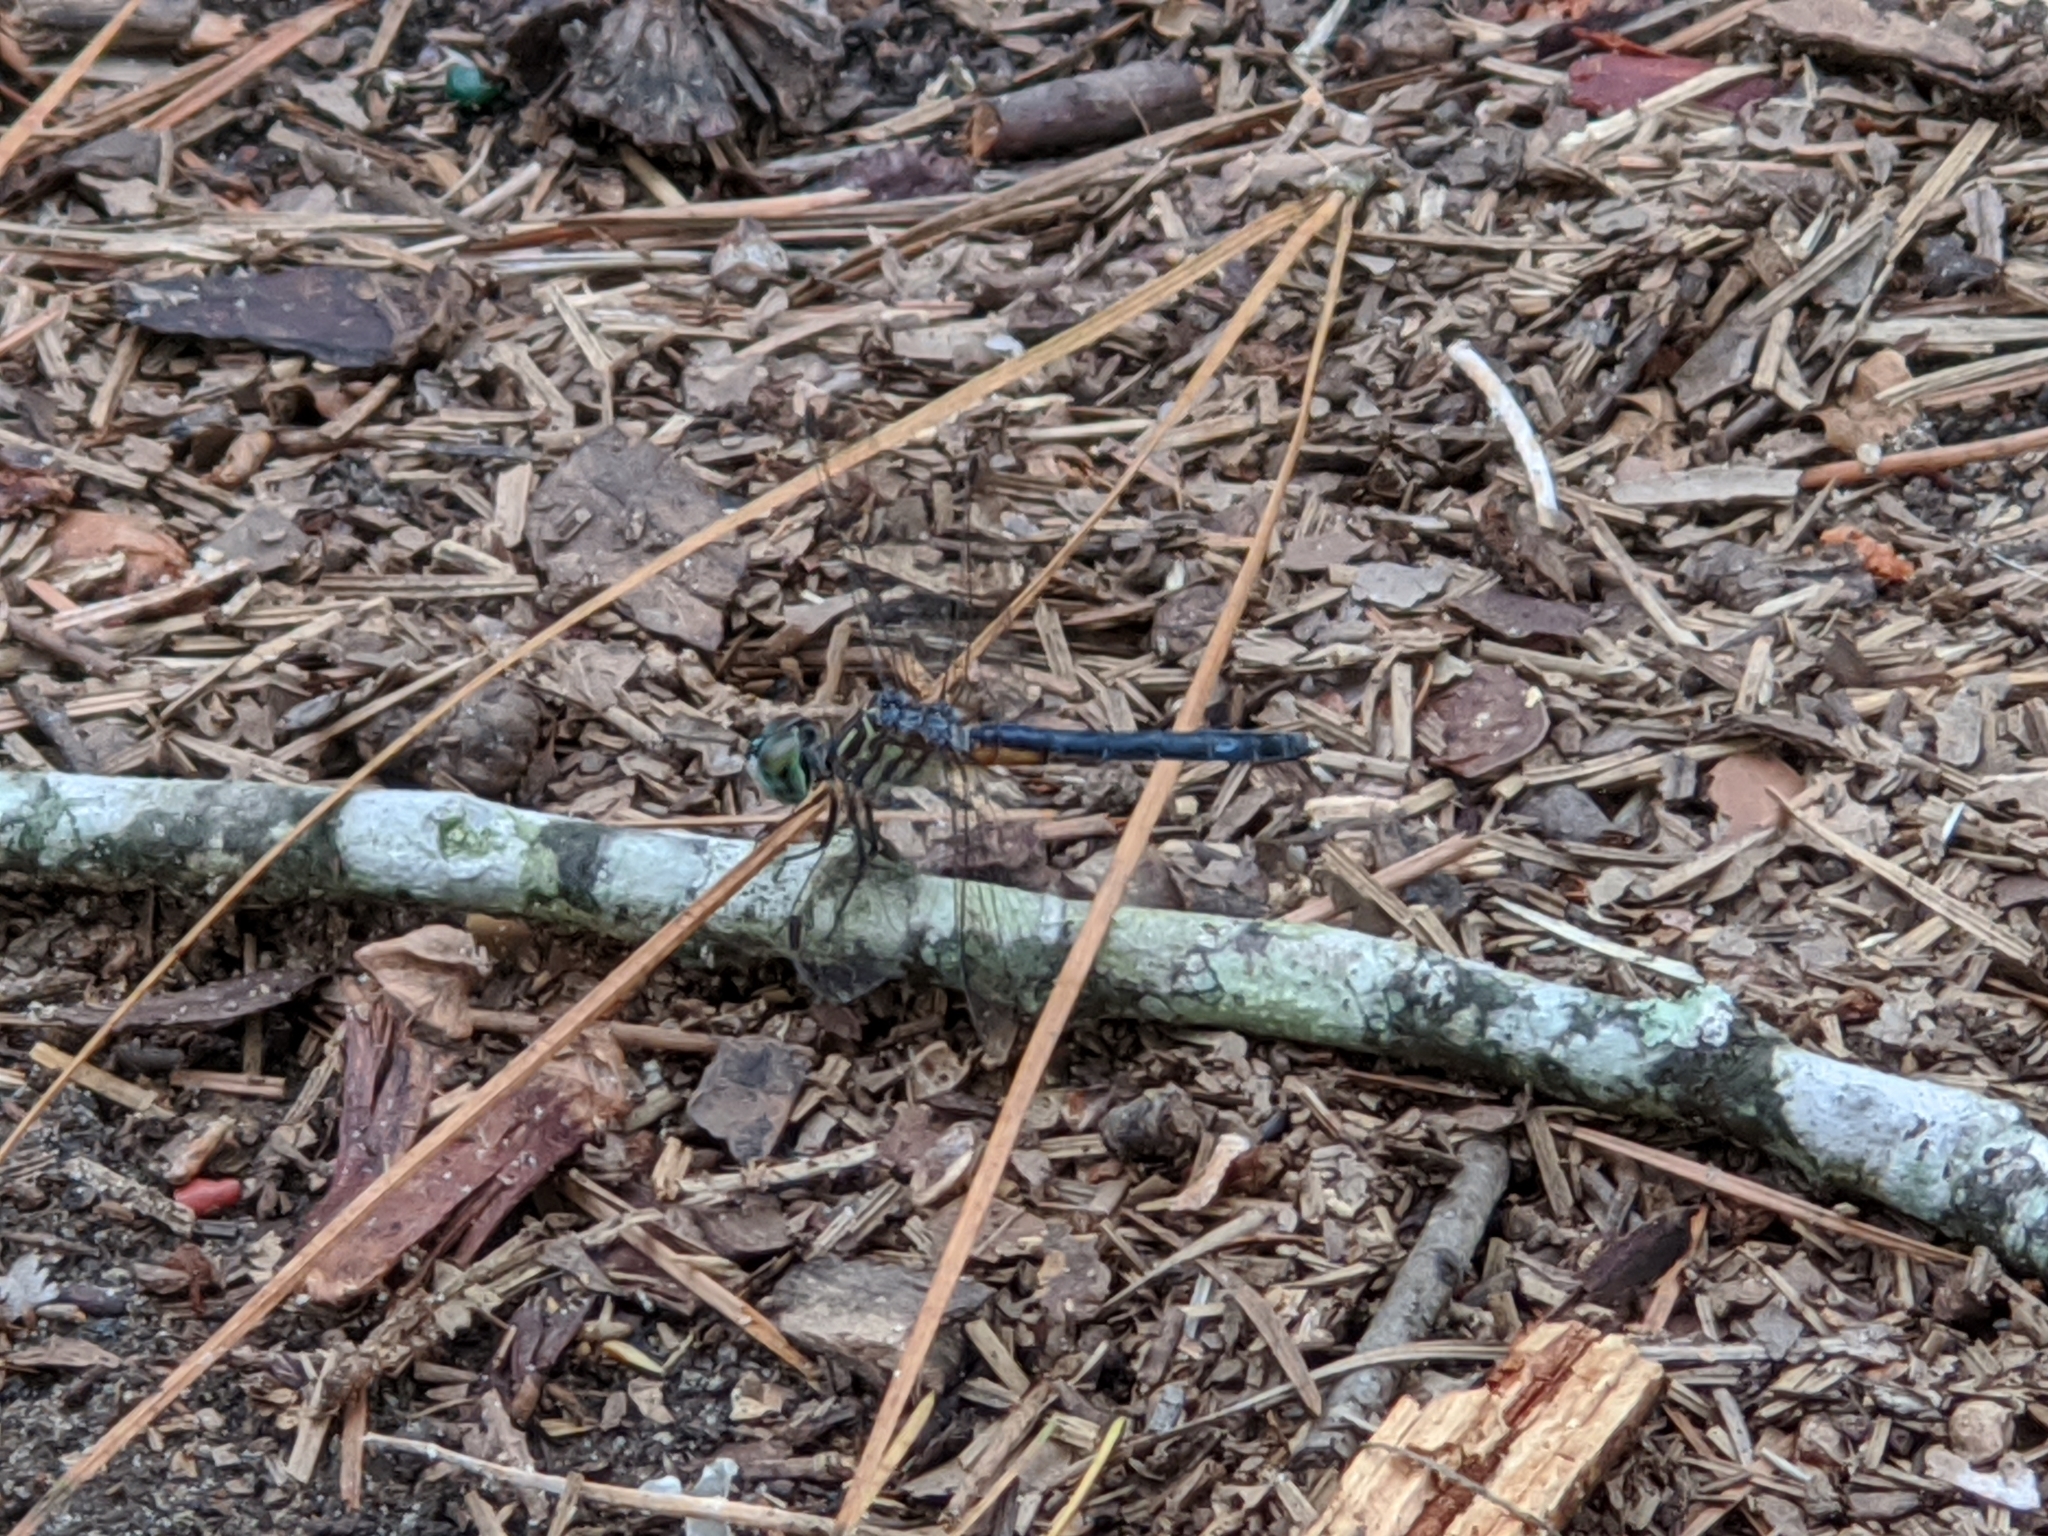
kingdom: Animalia
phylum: Arthropoda
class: Insecta
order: Odonata
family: Libellulidae
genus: Pachydiplax
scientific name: Pachydiplax longipennis
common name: Blue dasher
